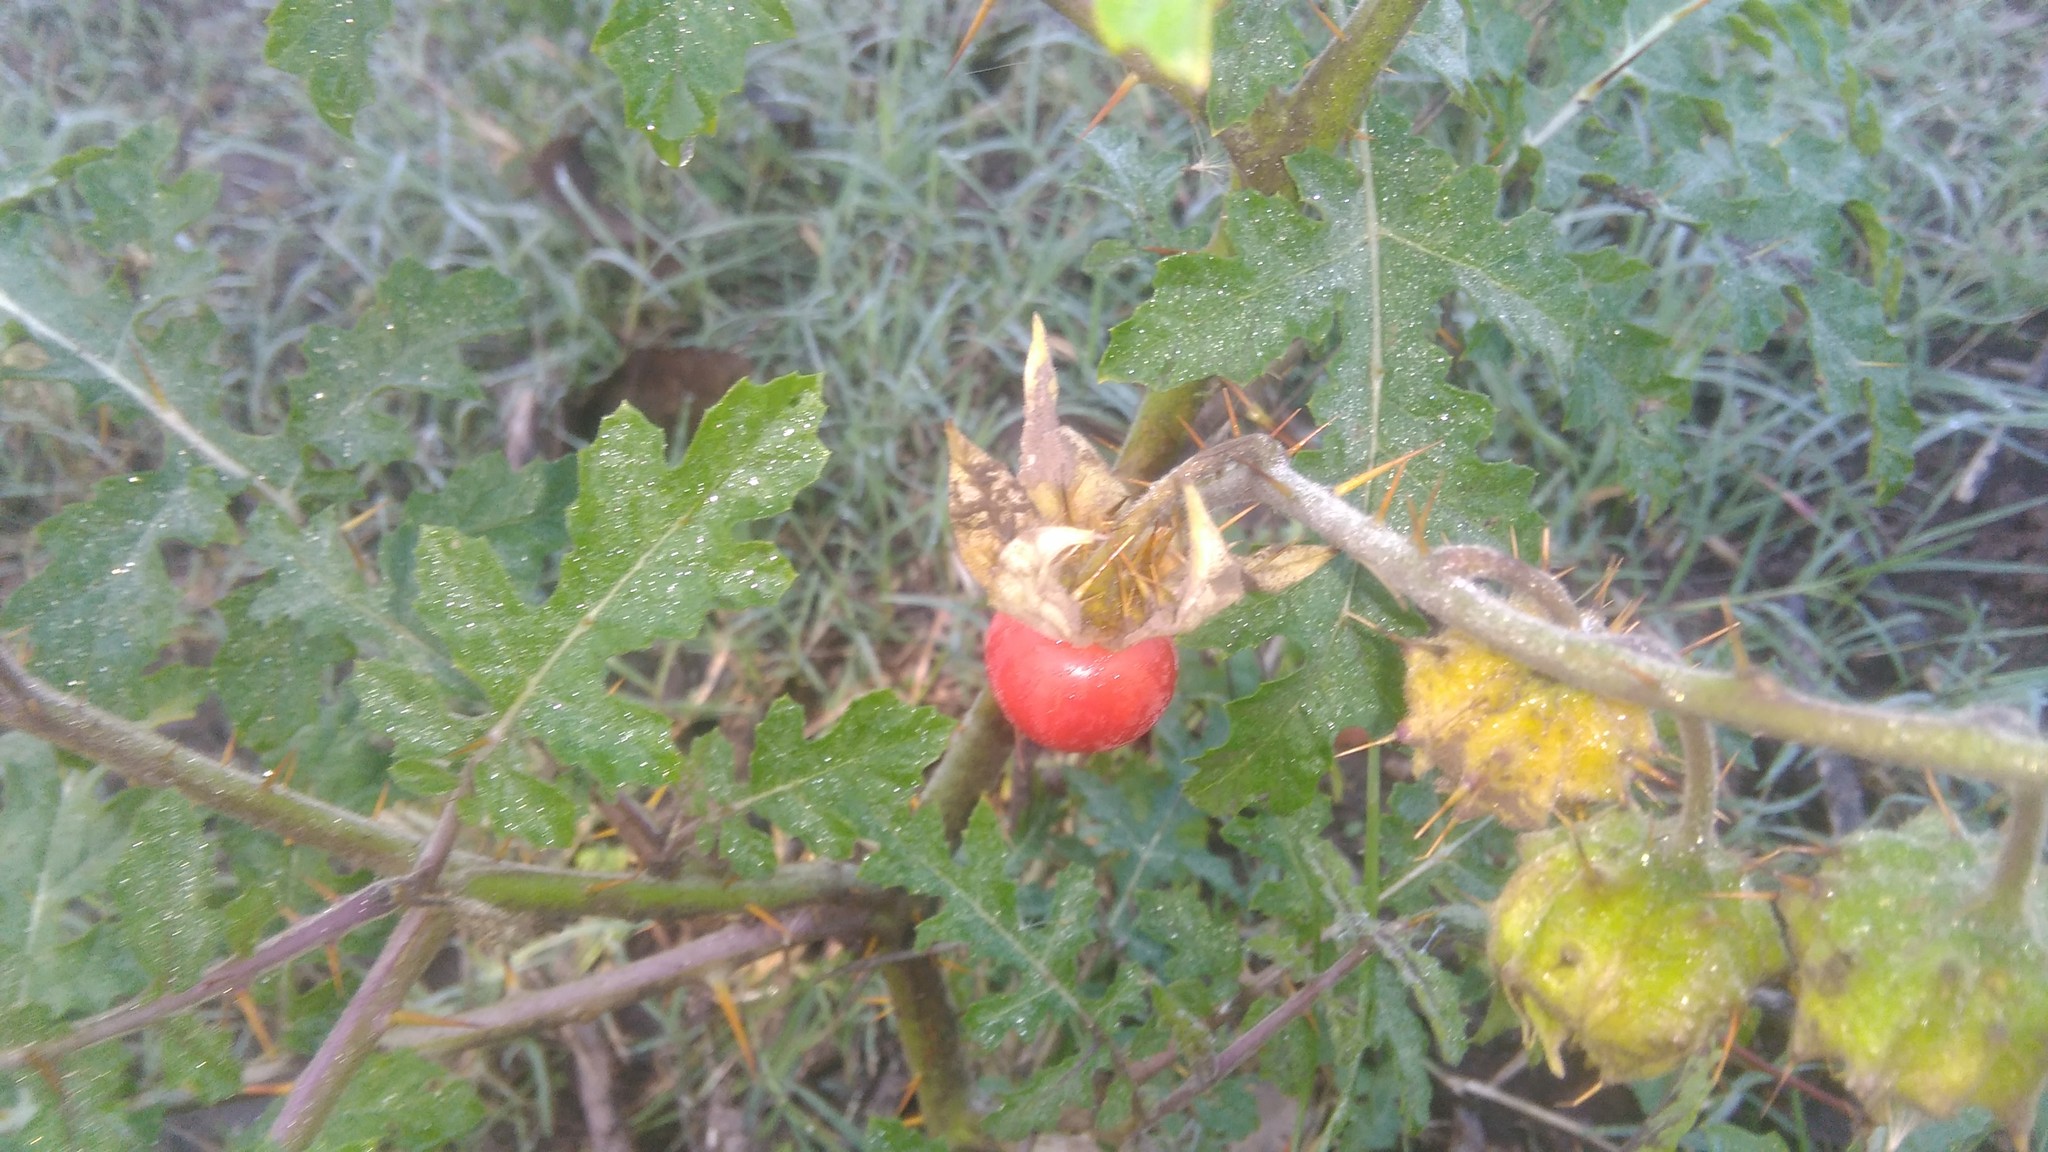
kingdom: Plantae
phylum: Tracheophyta
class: Magnoliopsida
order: Solanales
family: Solanaceae
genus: Solanum
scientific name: Solanum sisymbriifolium
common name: Red buffalo-bur
